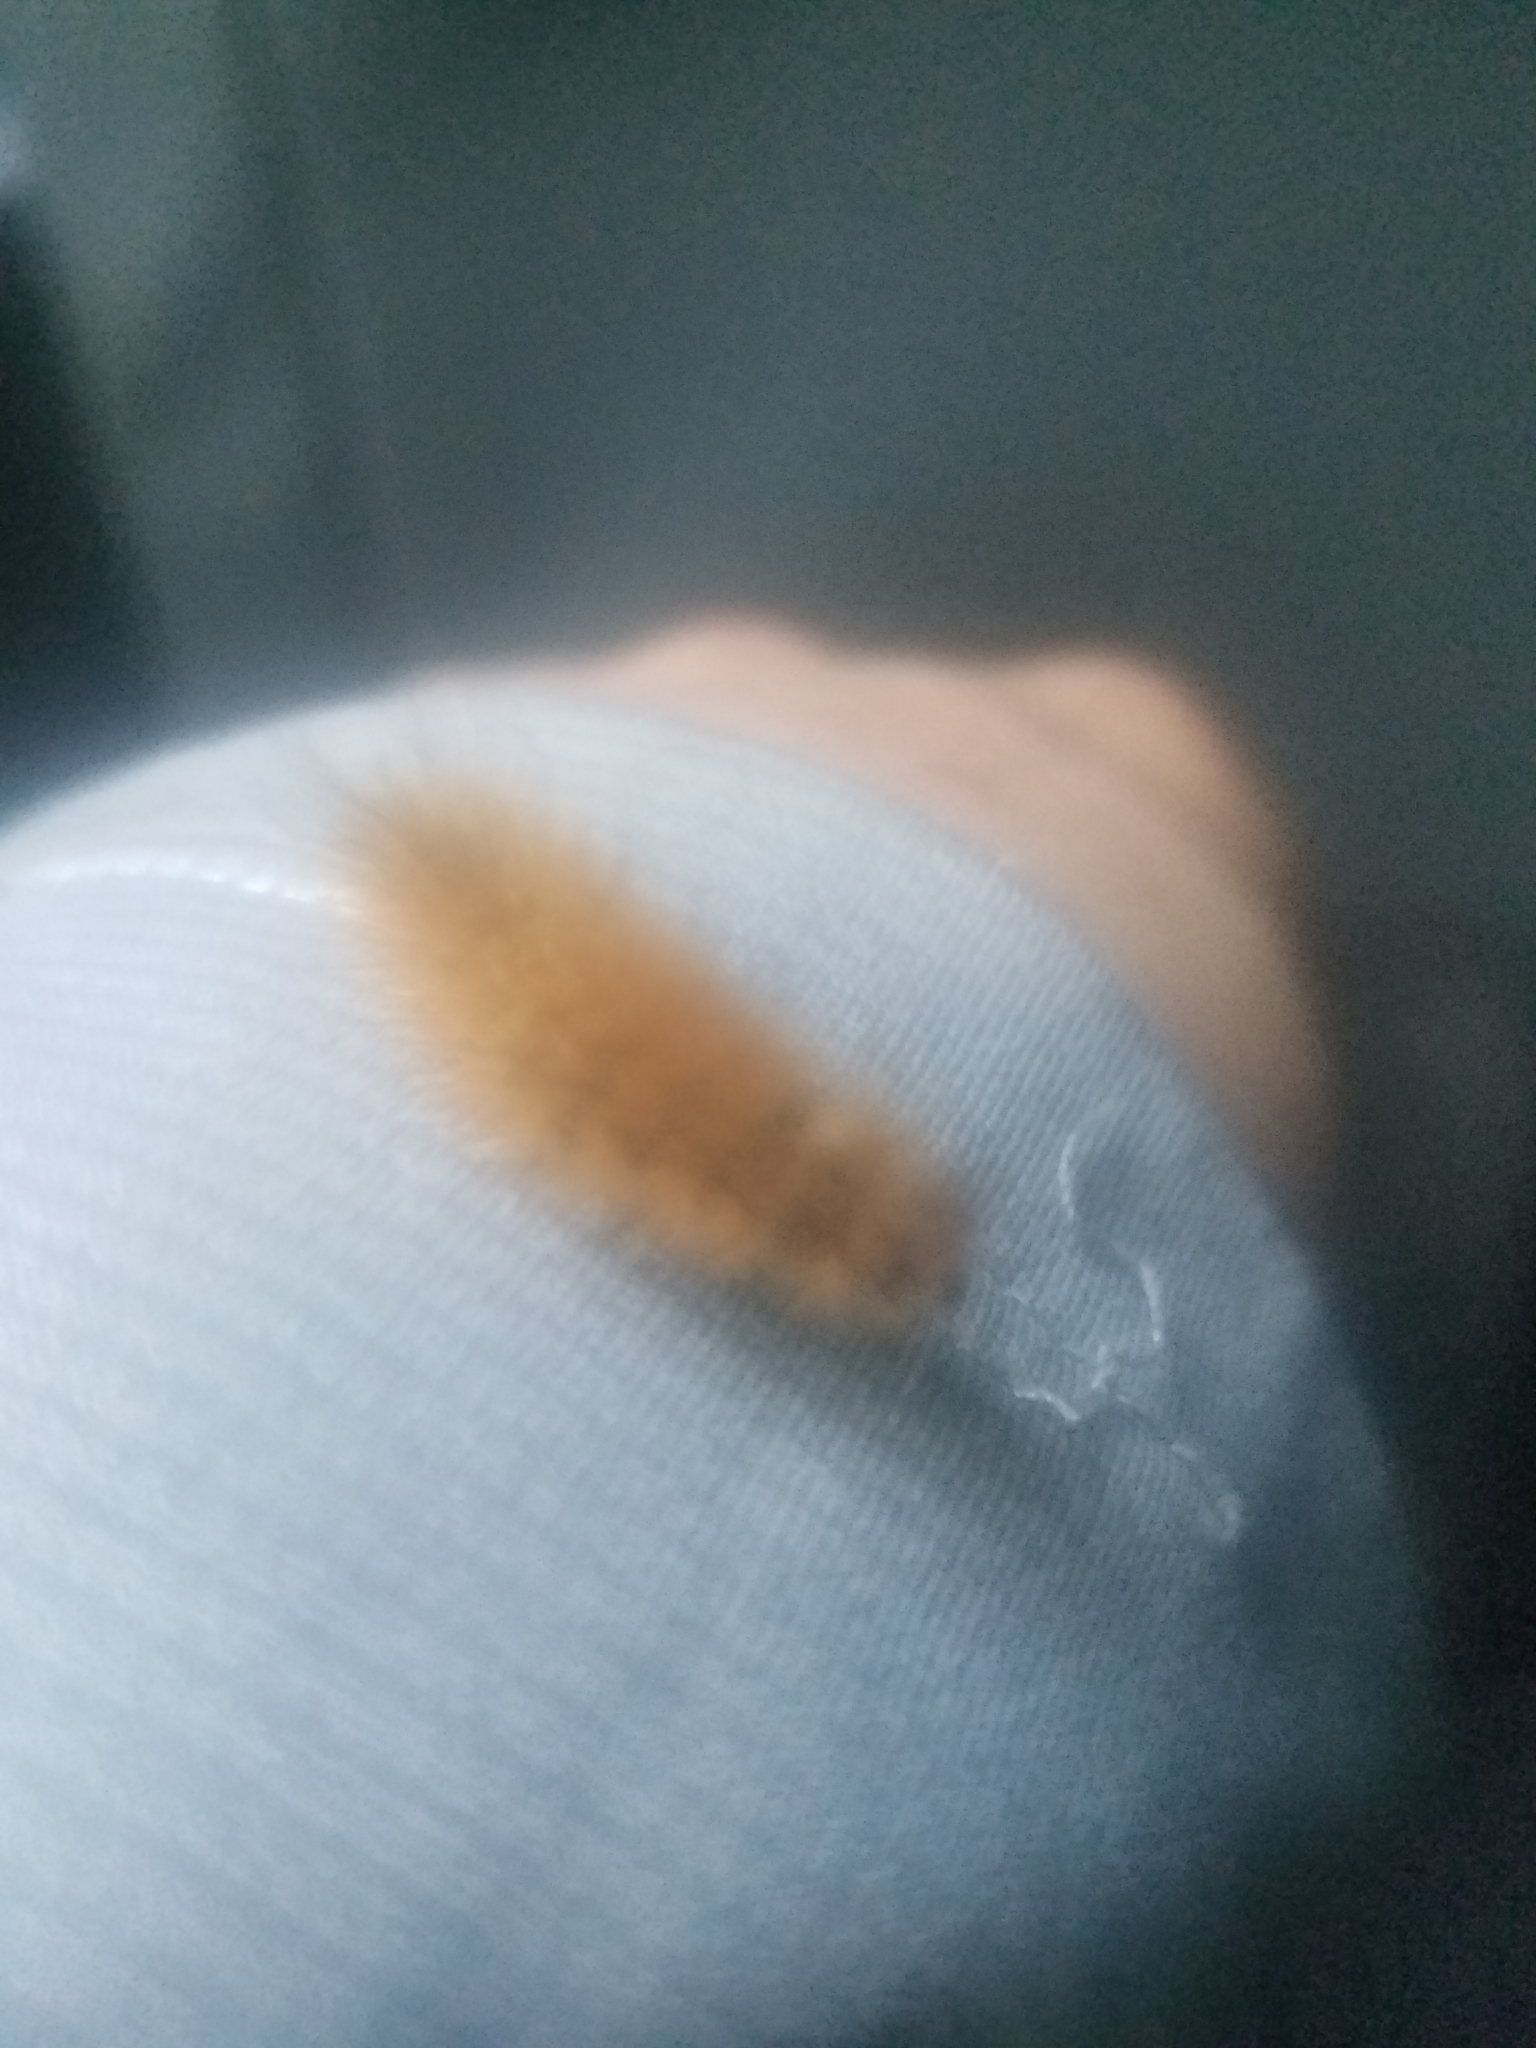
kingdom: Animalia
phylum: Arthropoda
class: Insecta
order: Lepidoptera
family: Erebidae
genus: Pyrrharctia
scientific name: Pyrrharctia isabella
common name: Isabella tiger moth
